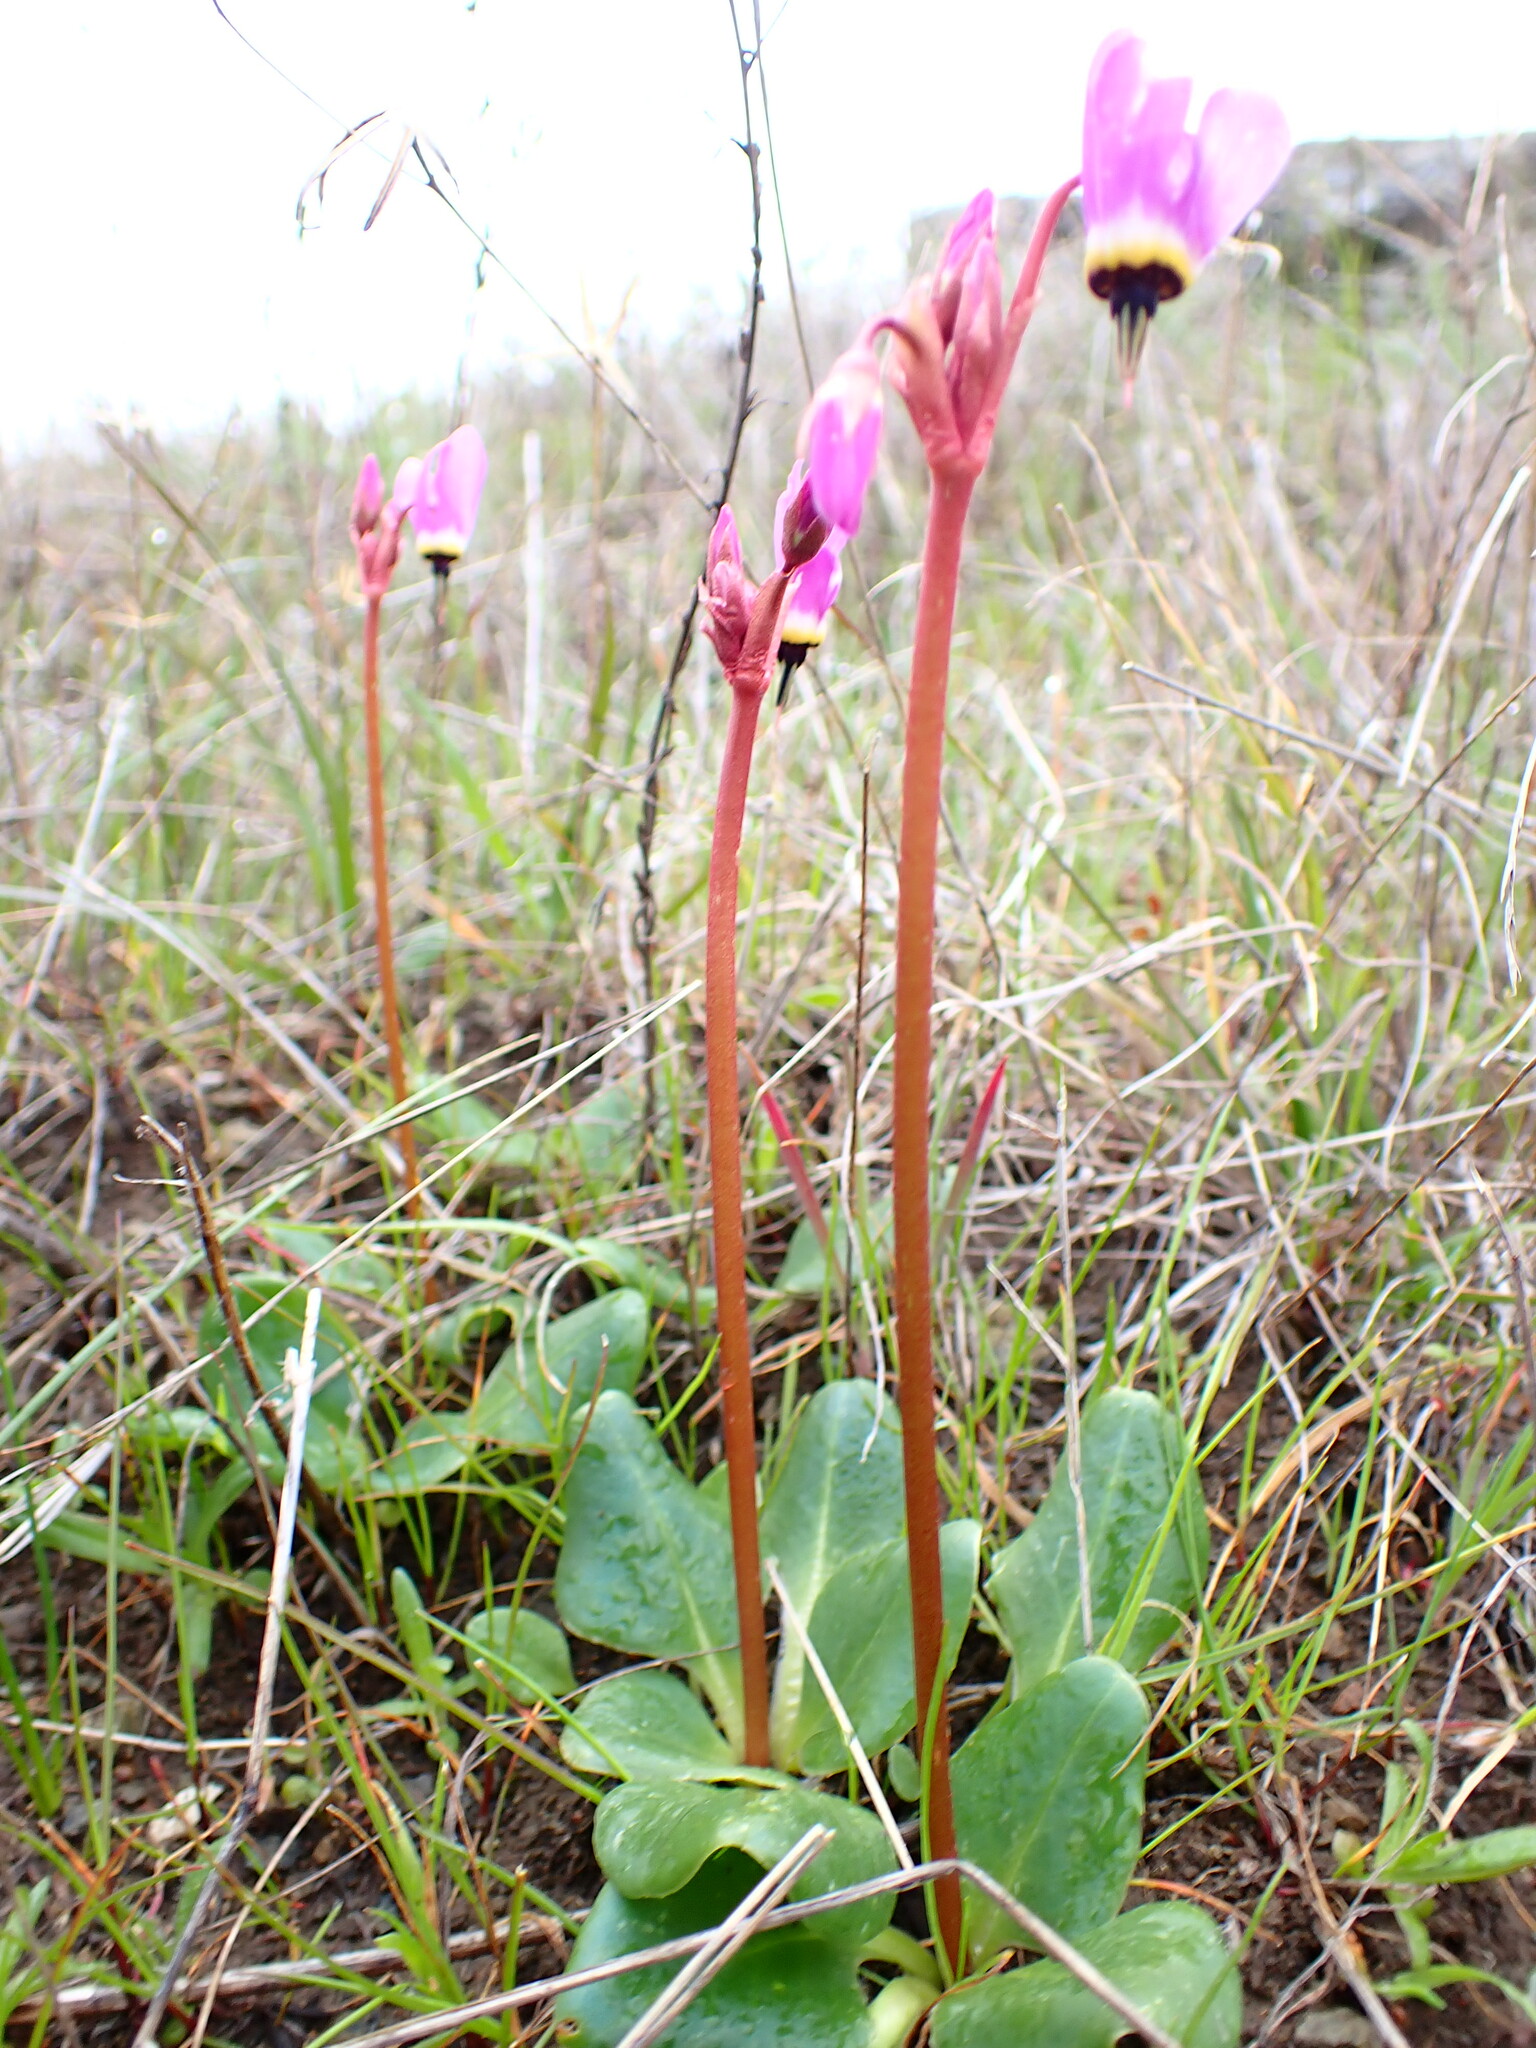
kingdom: Plantae
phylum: Tracheophyta
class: Magnoliopsida
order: Ericales
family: Primulaceae
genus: Dodecatheon
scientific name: Dodecatheon hendersonii
